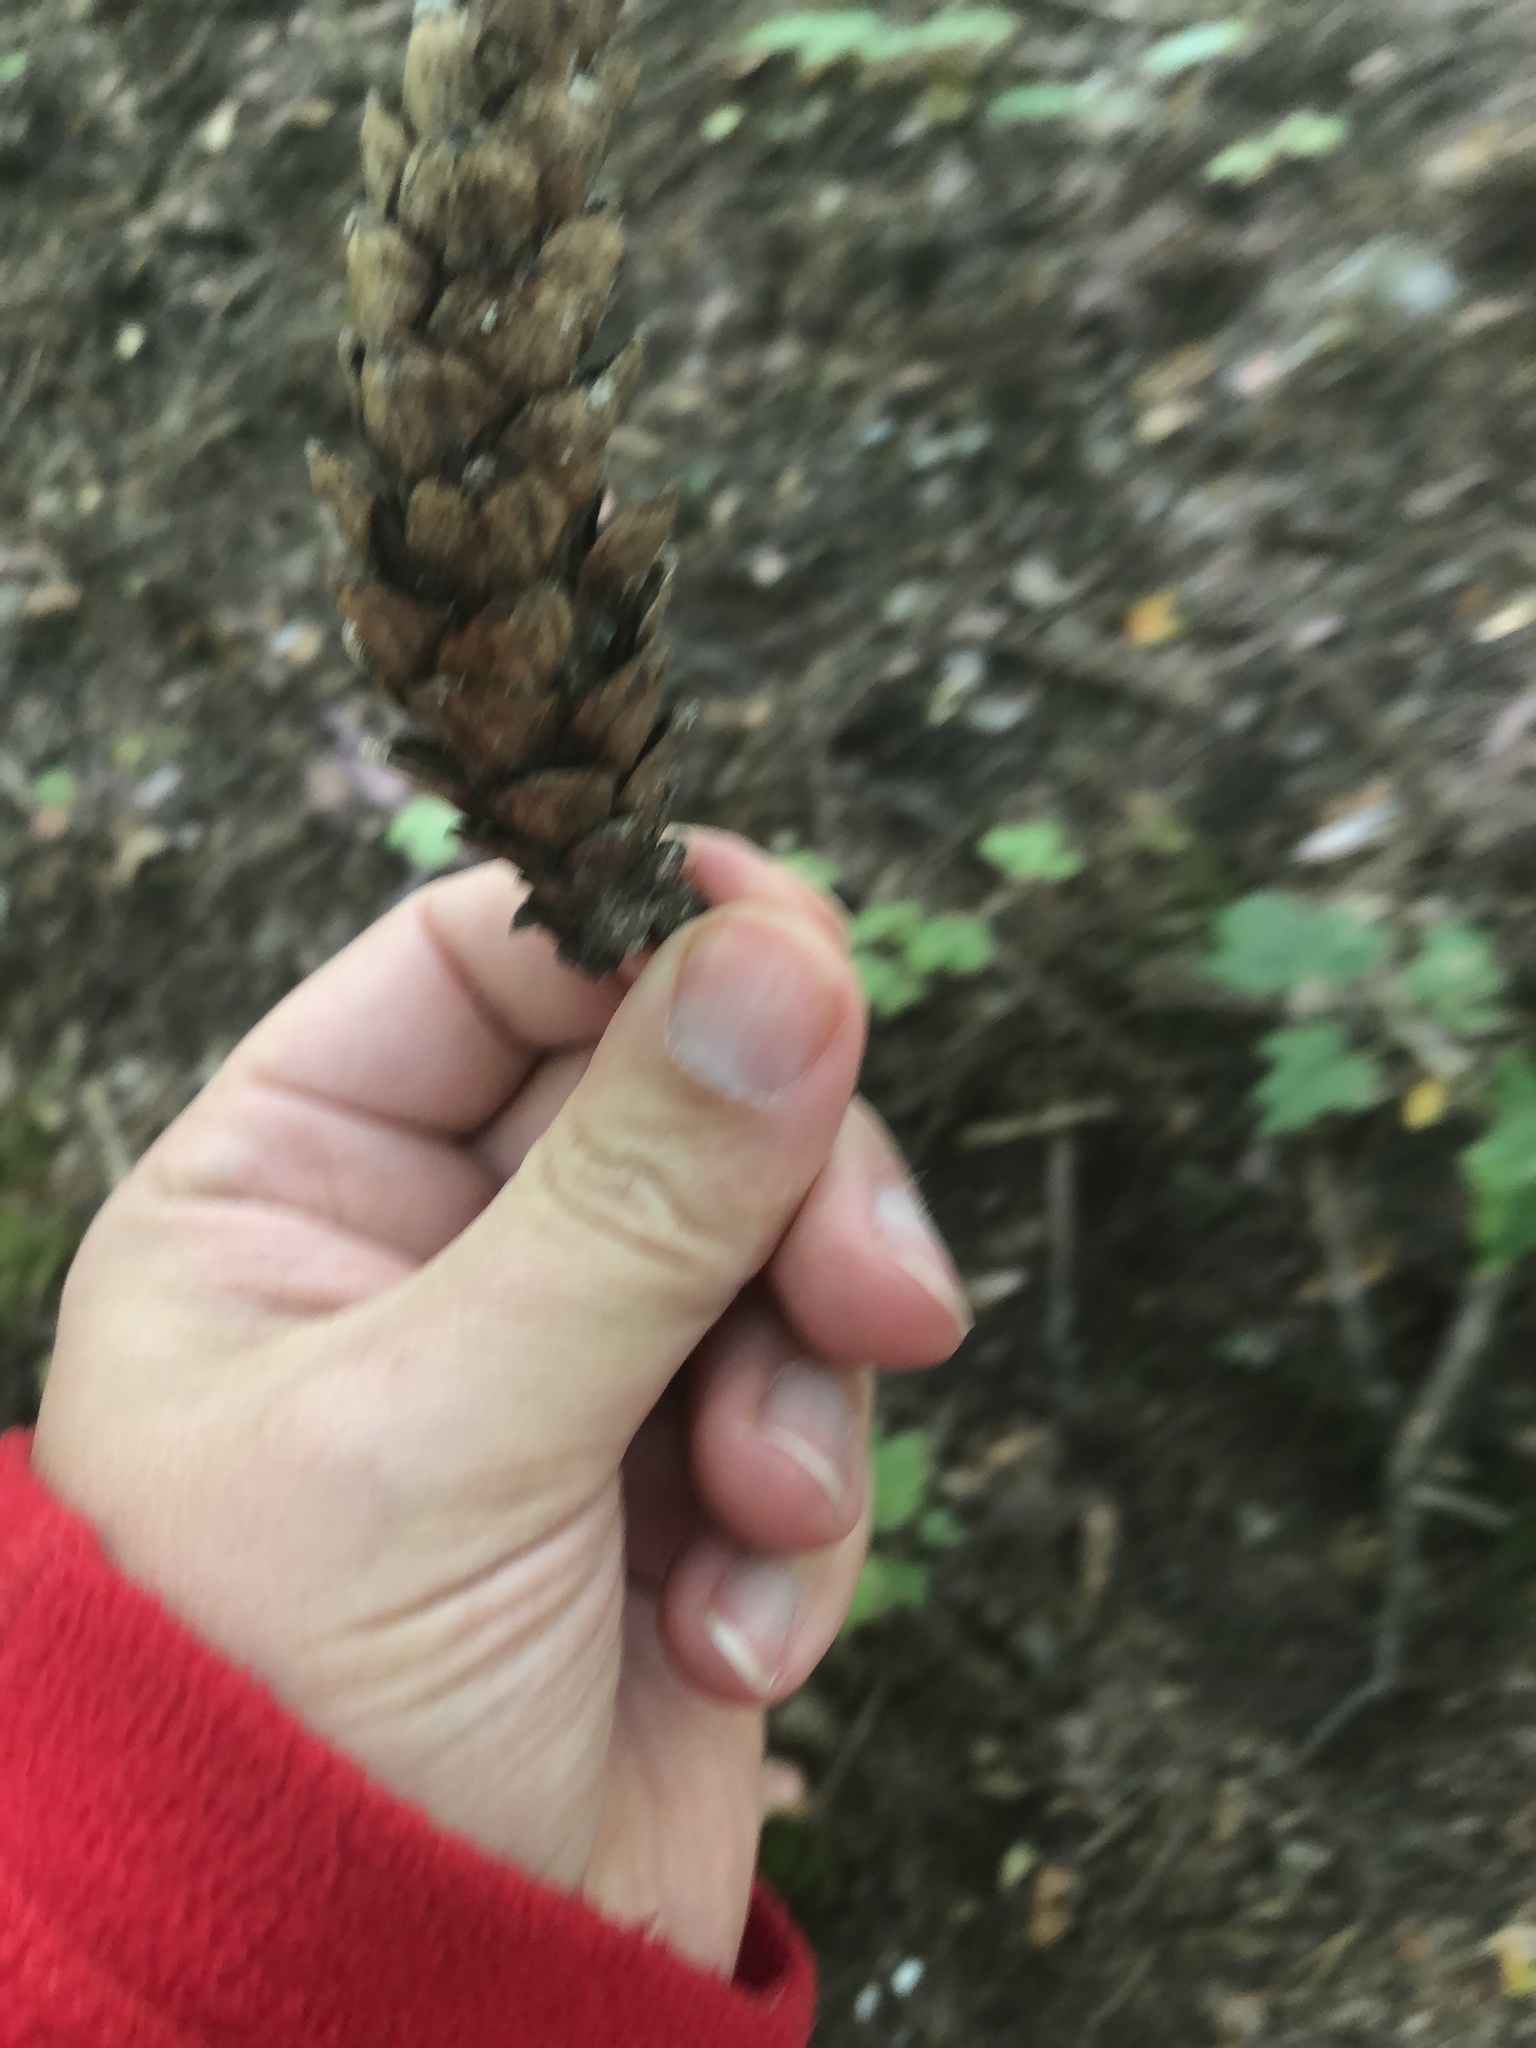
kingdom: Plantae
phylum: Tracheophyta
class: Pinopsida
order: Pinales
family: Pinaceae
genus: Pinus
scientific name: Pinus strobus
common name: Weymouth pine
